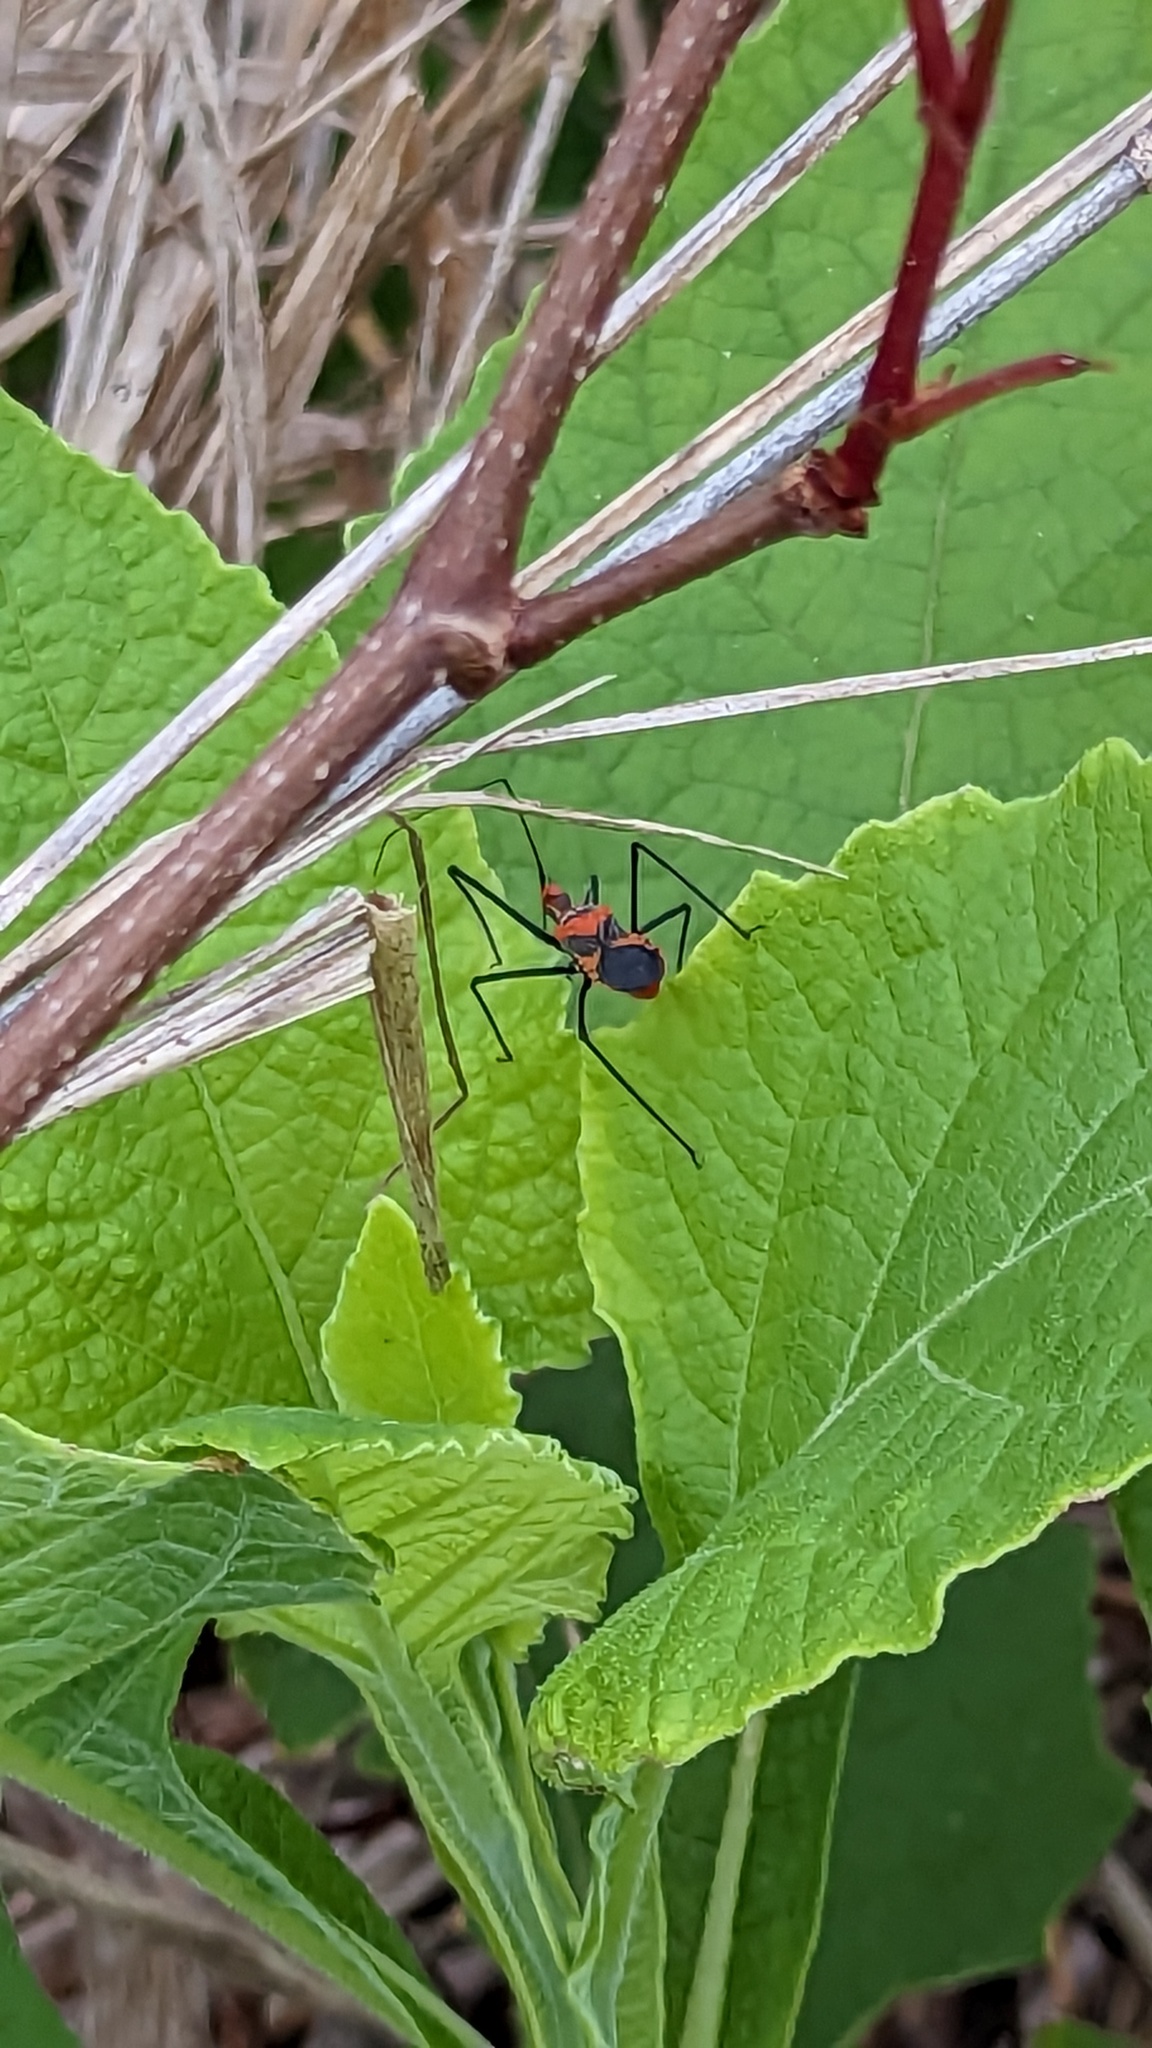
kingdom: Animalia
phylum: Arthropoda
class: Insecta
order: Hemiptera
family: Reduviidae
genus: Zelus
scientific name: Zelus longipes
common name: Milkweed assassin bug
